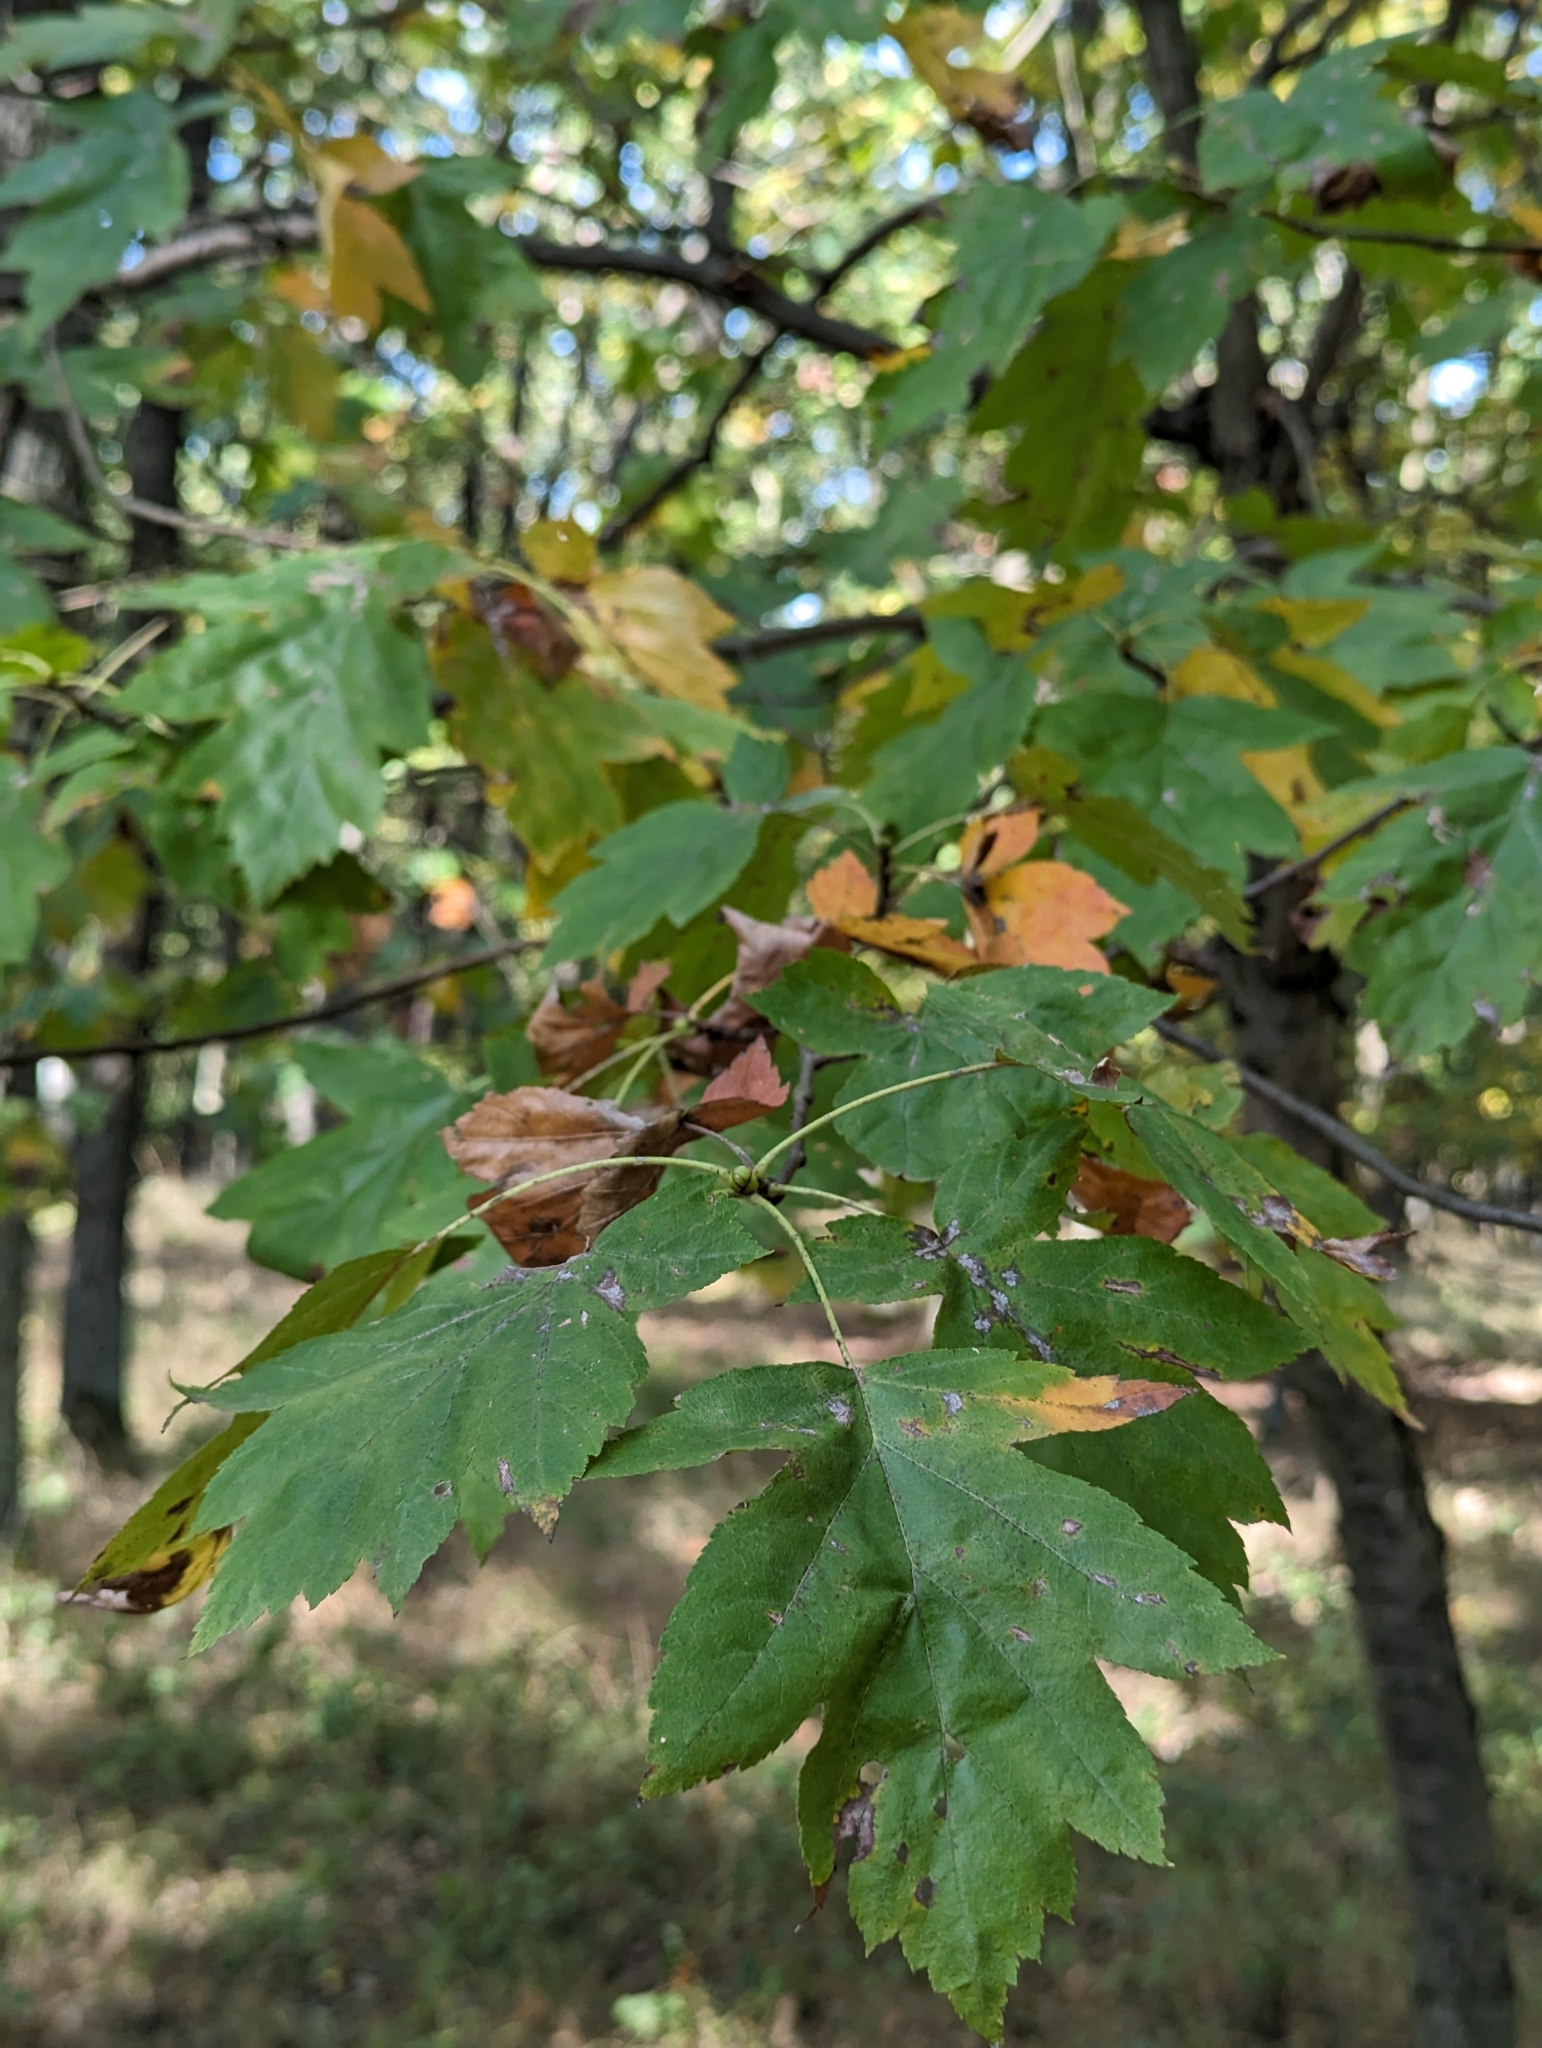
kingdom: Plantae
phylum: Tracheophyta
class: Magnoliopsida
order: Rosales
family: Rosaceae
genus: Torminalis
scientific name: Torminalis glaberrima
